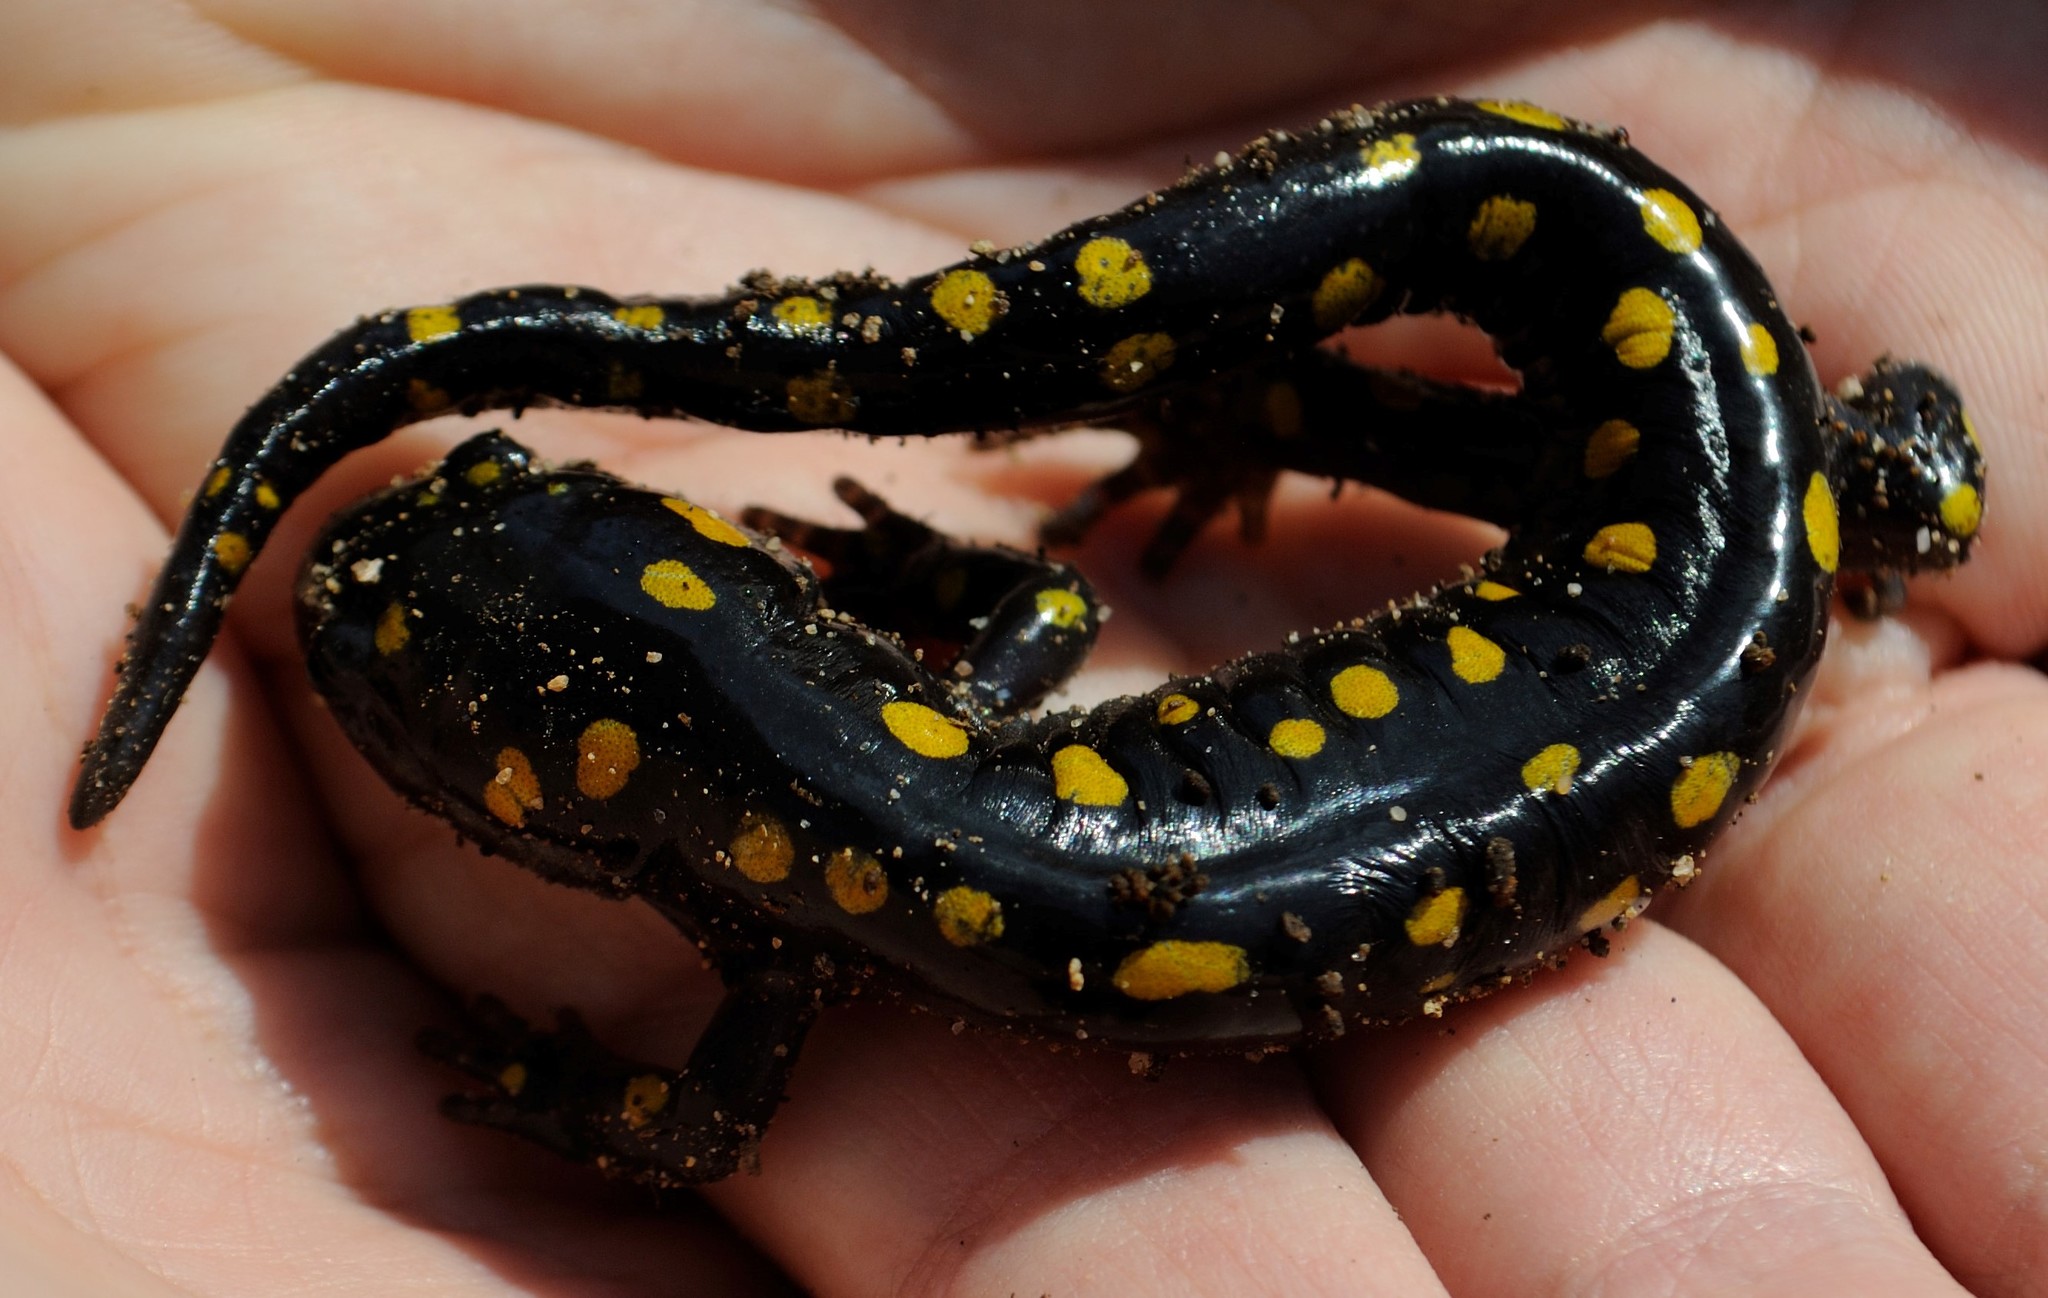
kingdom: Animalia
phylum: Chordata
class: Amphibia
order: Caudata
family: Ambystomatidae
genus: Ambystoma
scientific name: Ambystoma maculatum
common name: Spotted salamander
